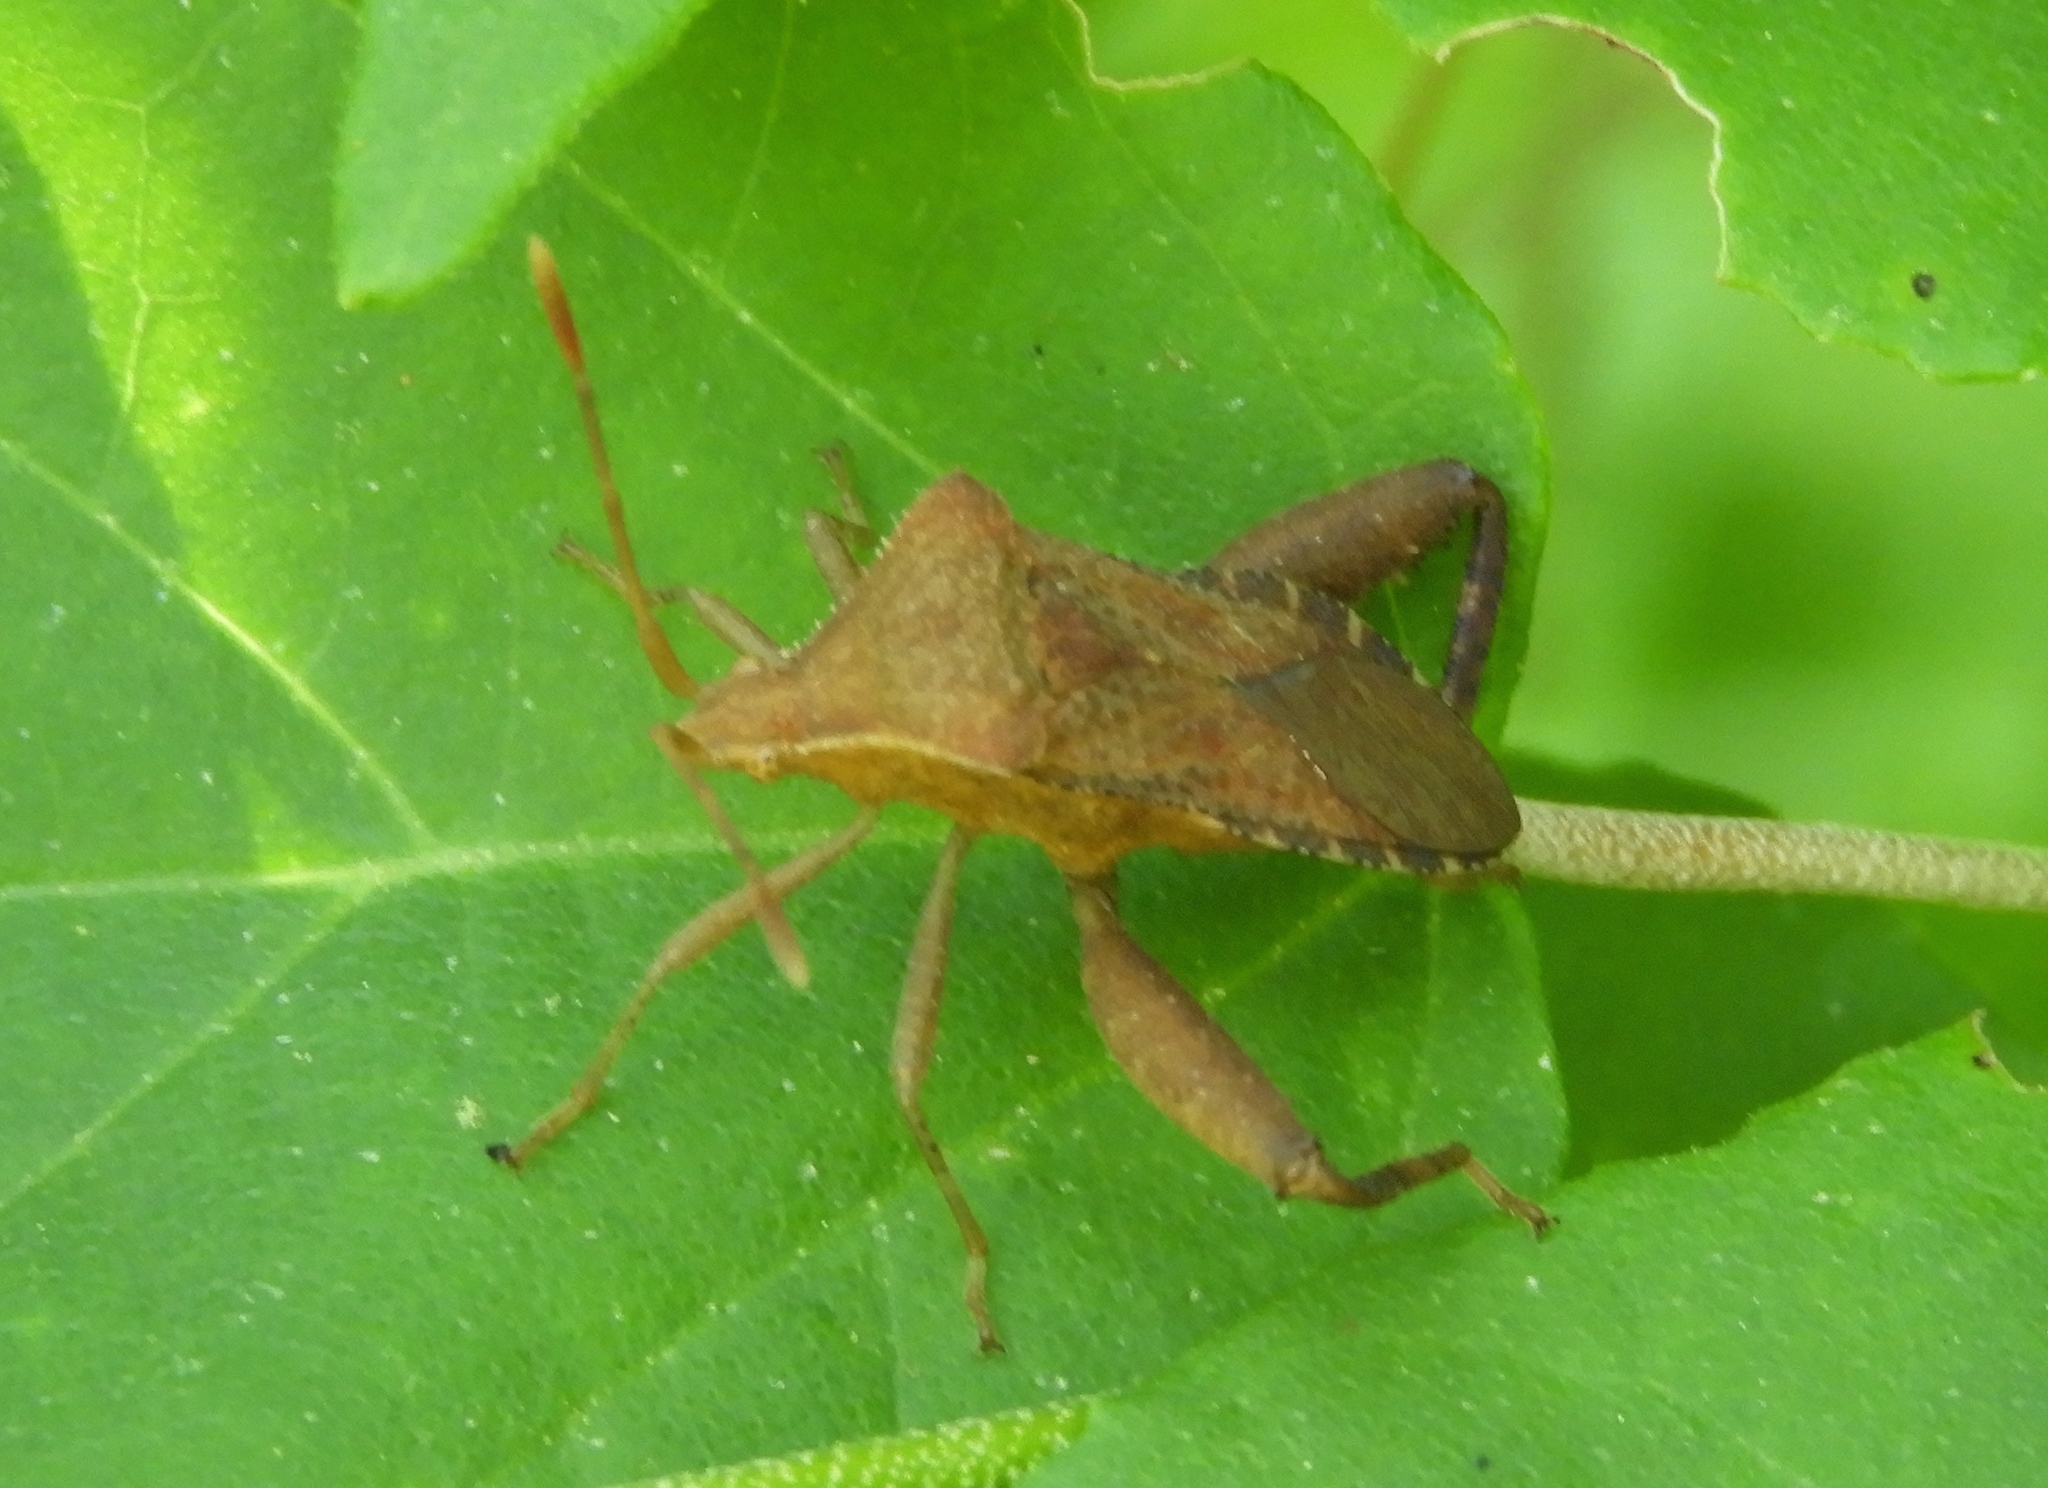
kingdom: Animalia
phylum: Arthropoda
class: Insecta
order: Hemiptera
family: Coreidae
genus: Mamurius
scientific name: Mamurius mopsus
